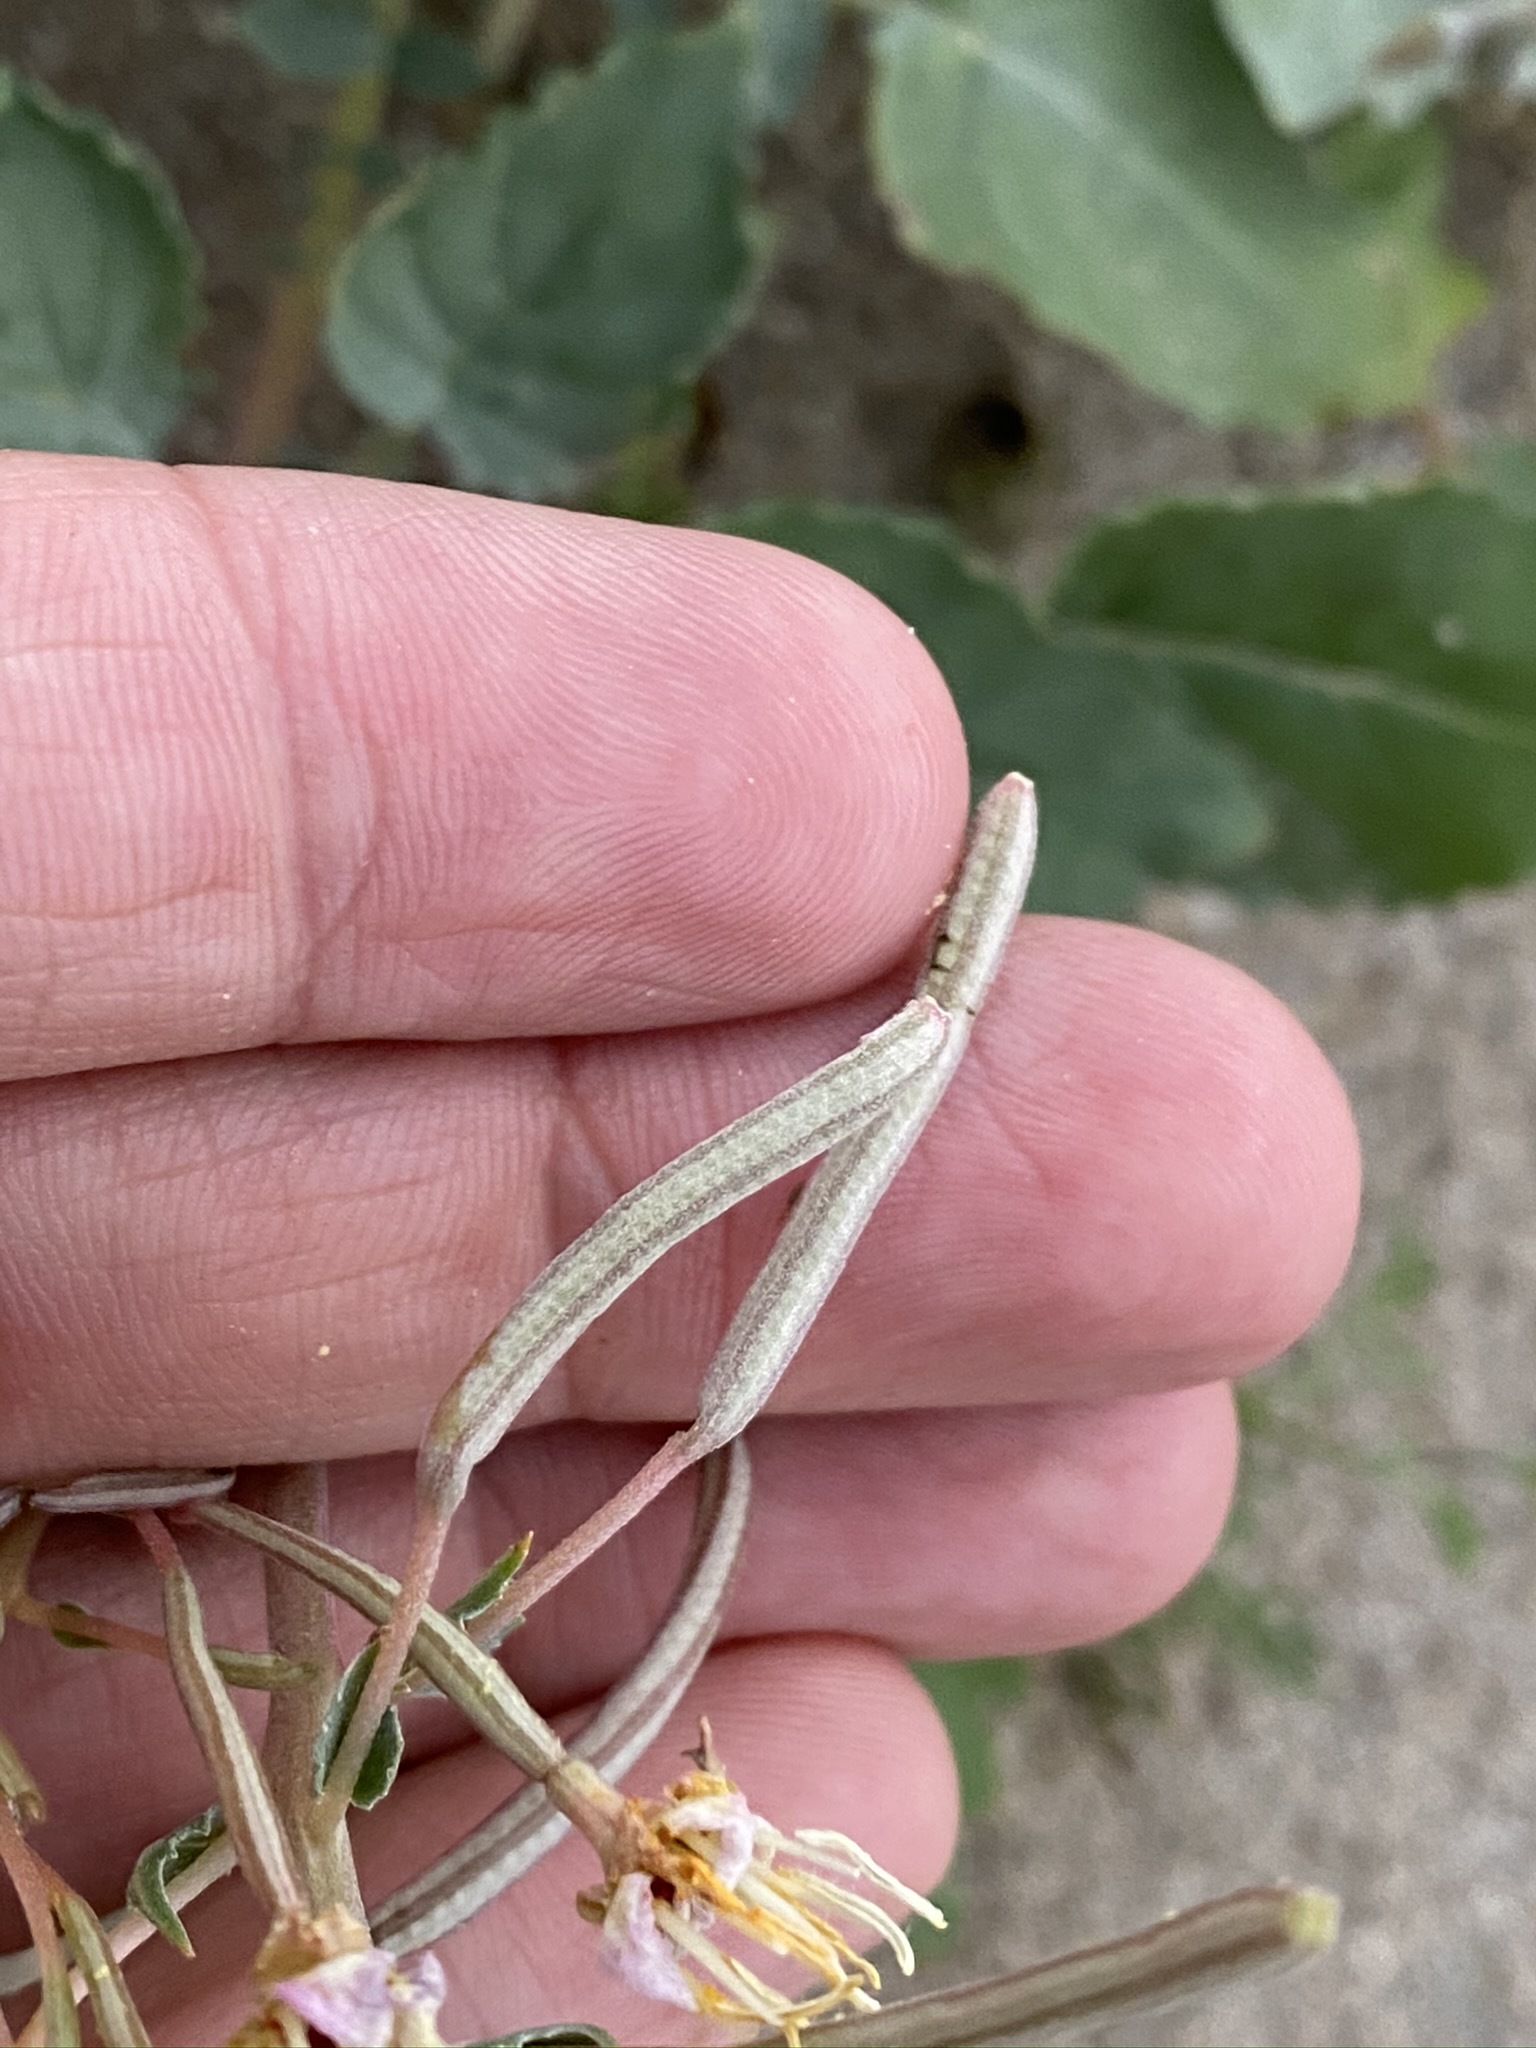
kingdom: Plantae
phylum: Tracheophyta
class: Magnoliopsida
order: Myrtales
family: Onagraceae
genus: Chylismia
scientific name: Chylismia claviformis
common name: Browneyes
